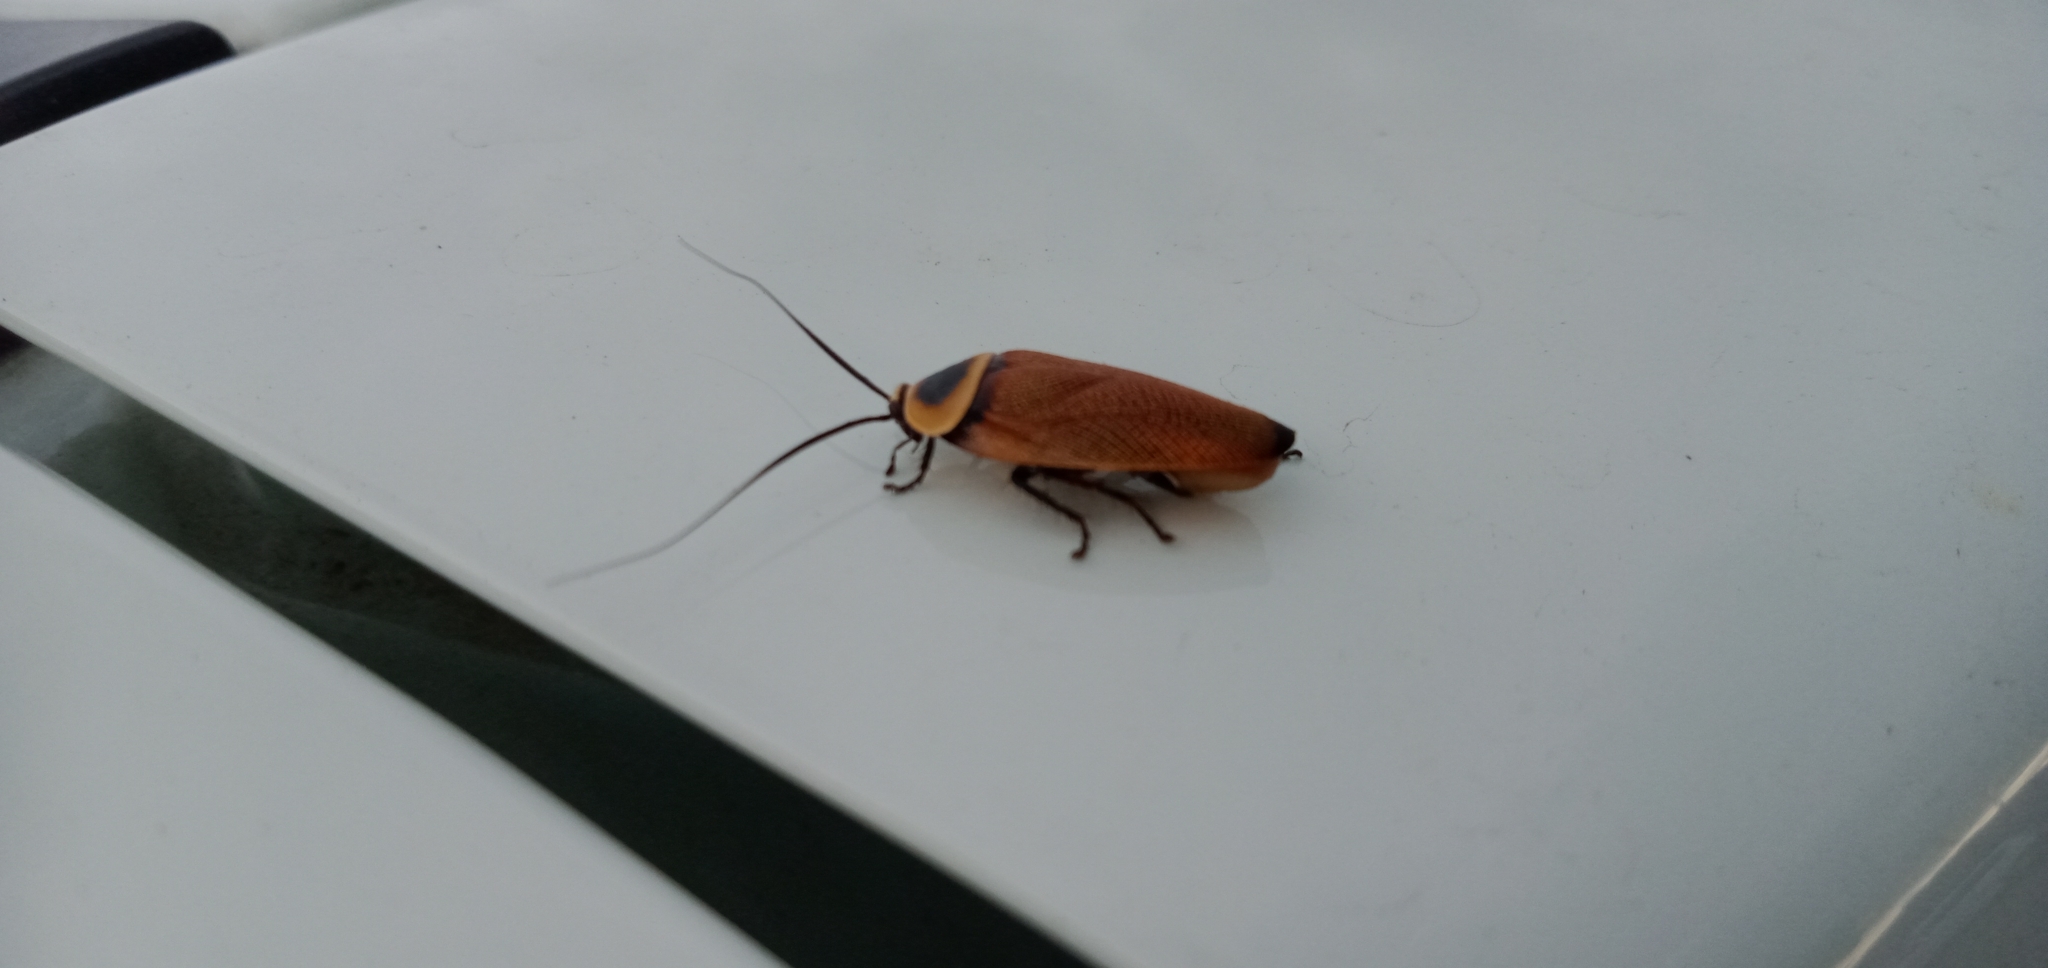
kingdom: Animalia
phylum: Arthropoda
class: Insecta
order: Blattodea
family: Ectobiidae
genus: Ellipsidion
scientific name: Ellipsidion australe
